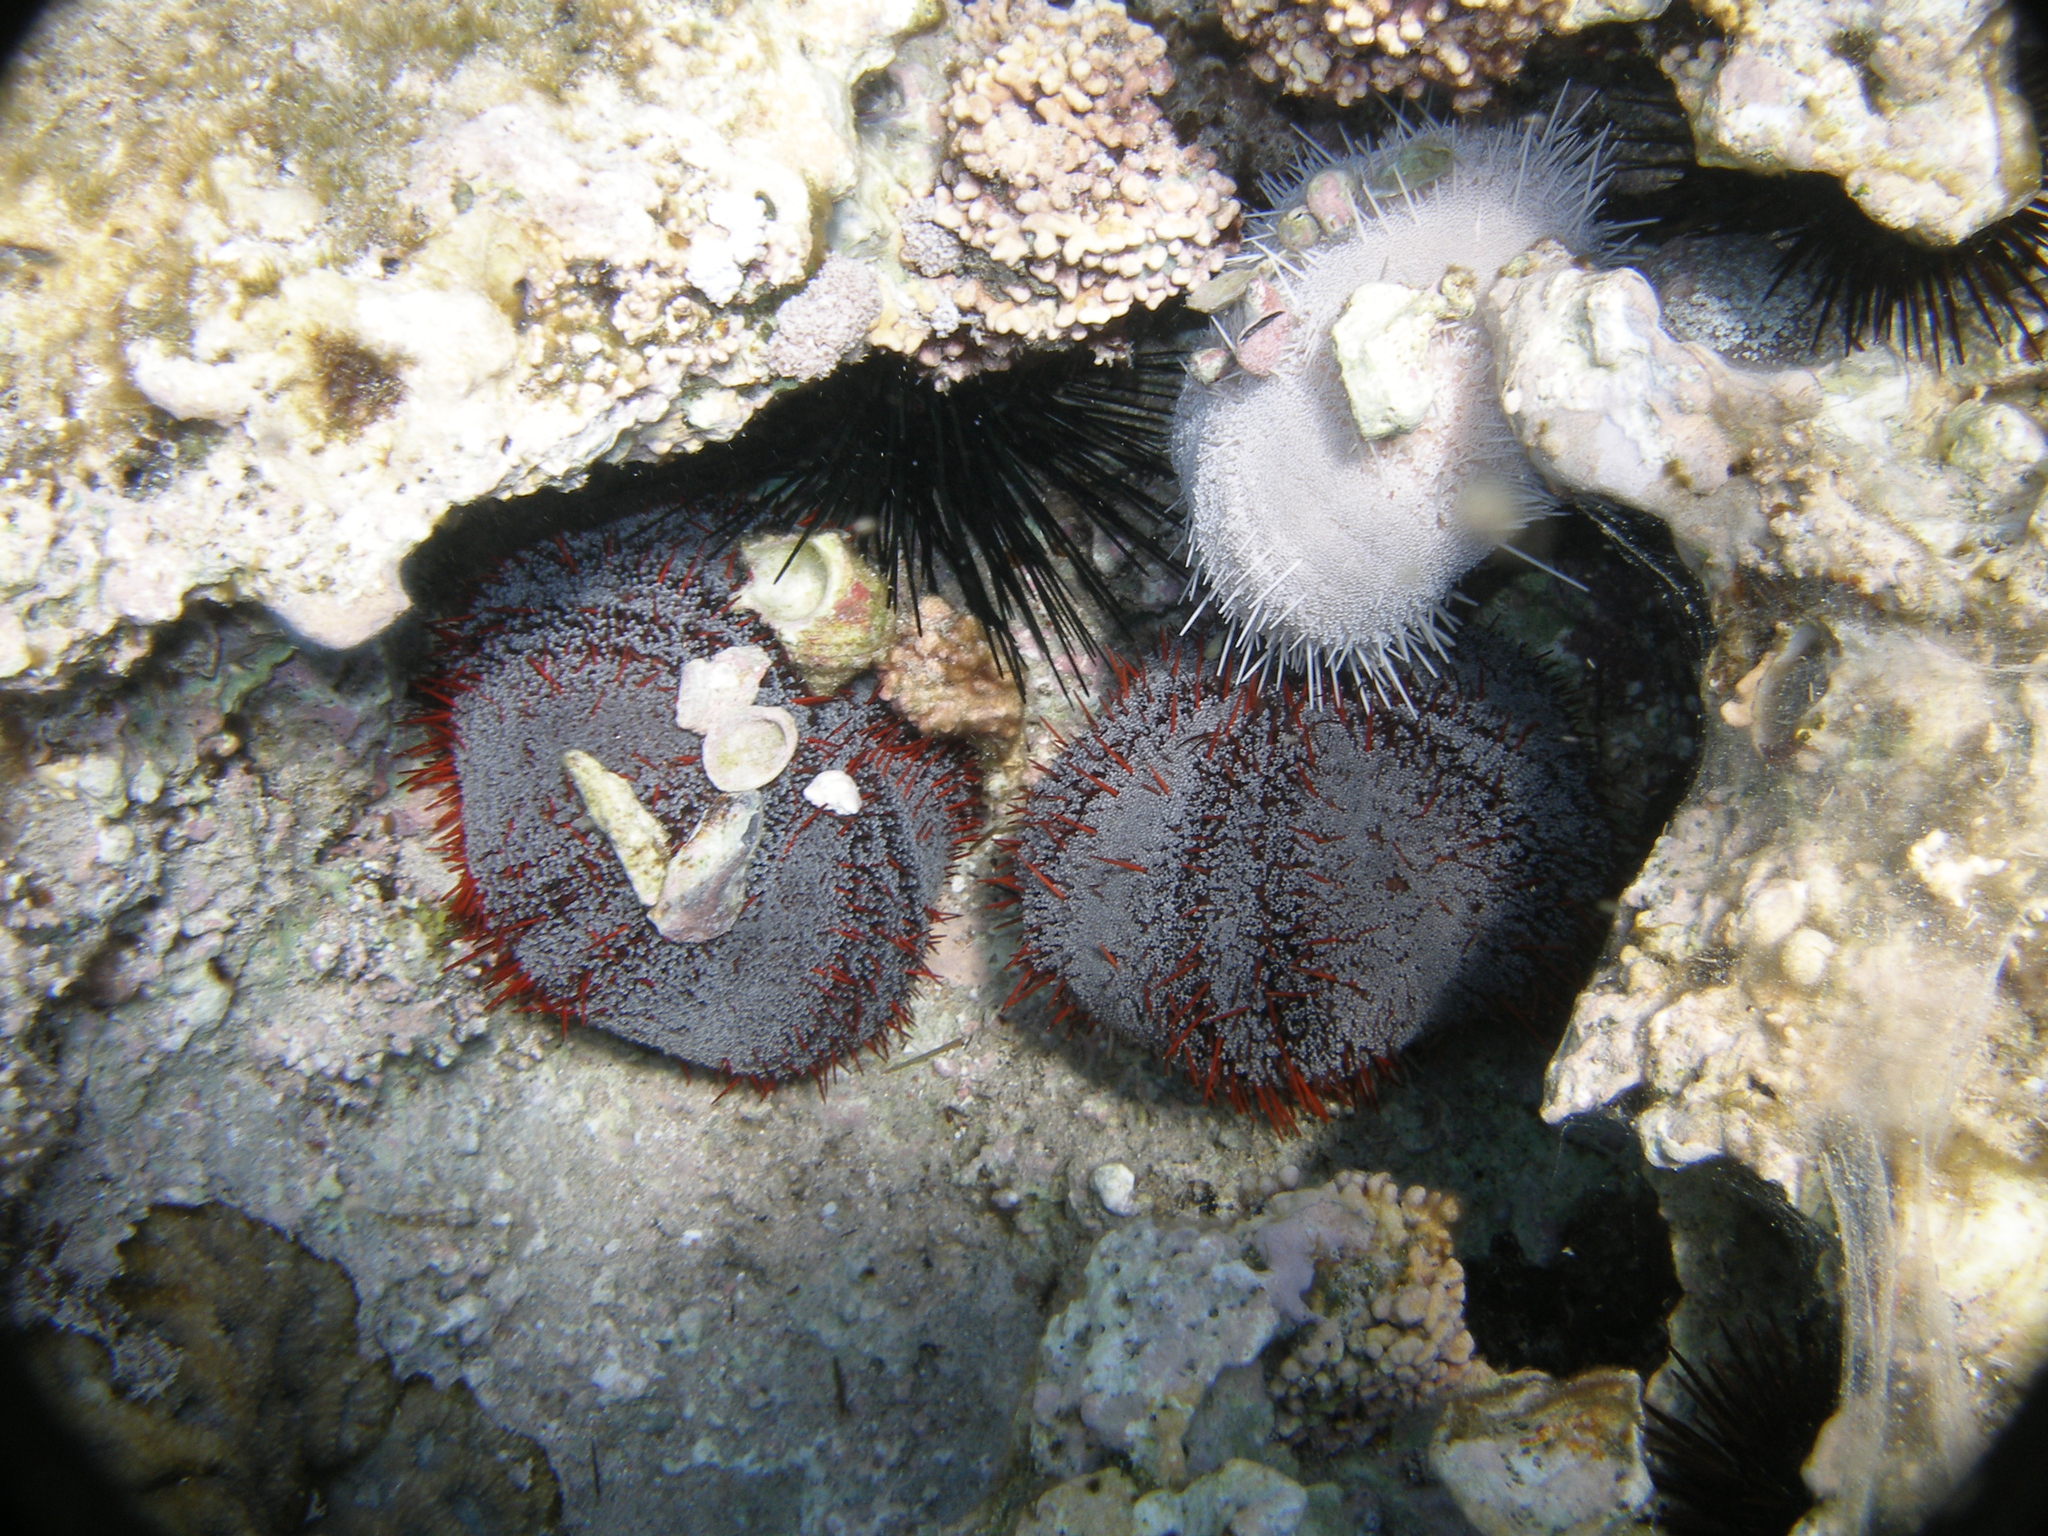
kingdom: Animalia
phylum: Echinodermata
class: Echinoidea
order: Camarodonta
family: Toxopneustidae
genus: Tripneustes
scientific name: Tripneustes gratilla
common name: Bischofsmützenseeigel
